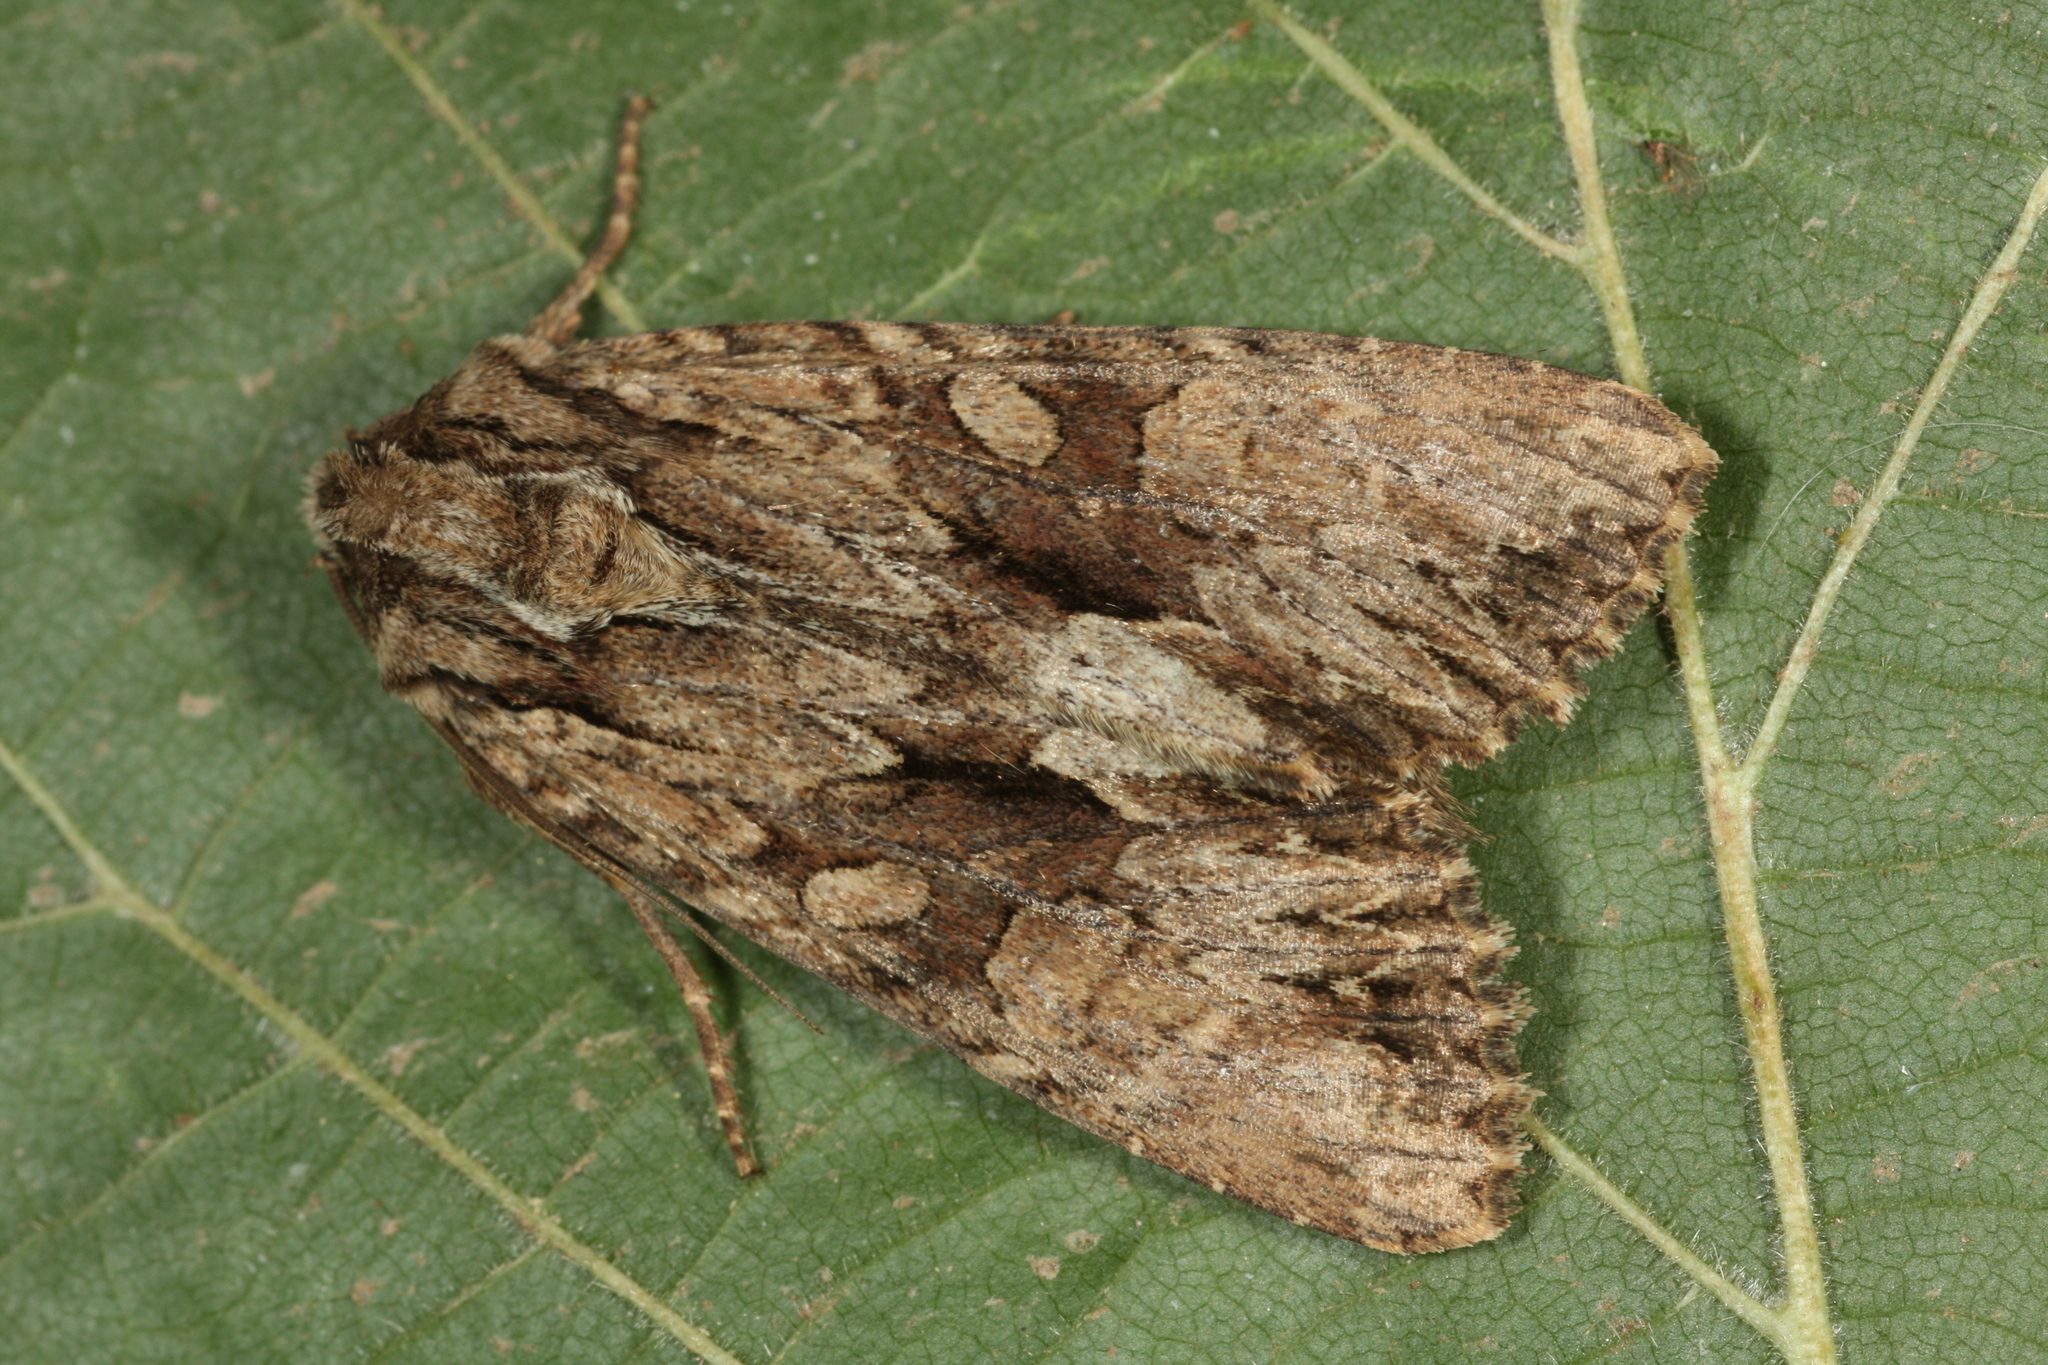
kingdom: Animalia
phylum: Arthropoda
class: Insecta
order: Lepidoptera
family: Noctuidae
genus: Apamea
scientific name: Apamea monoglypha
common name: Dark arches
